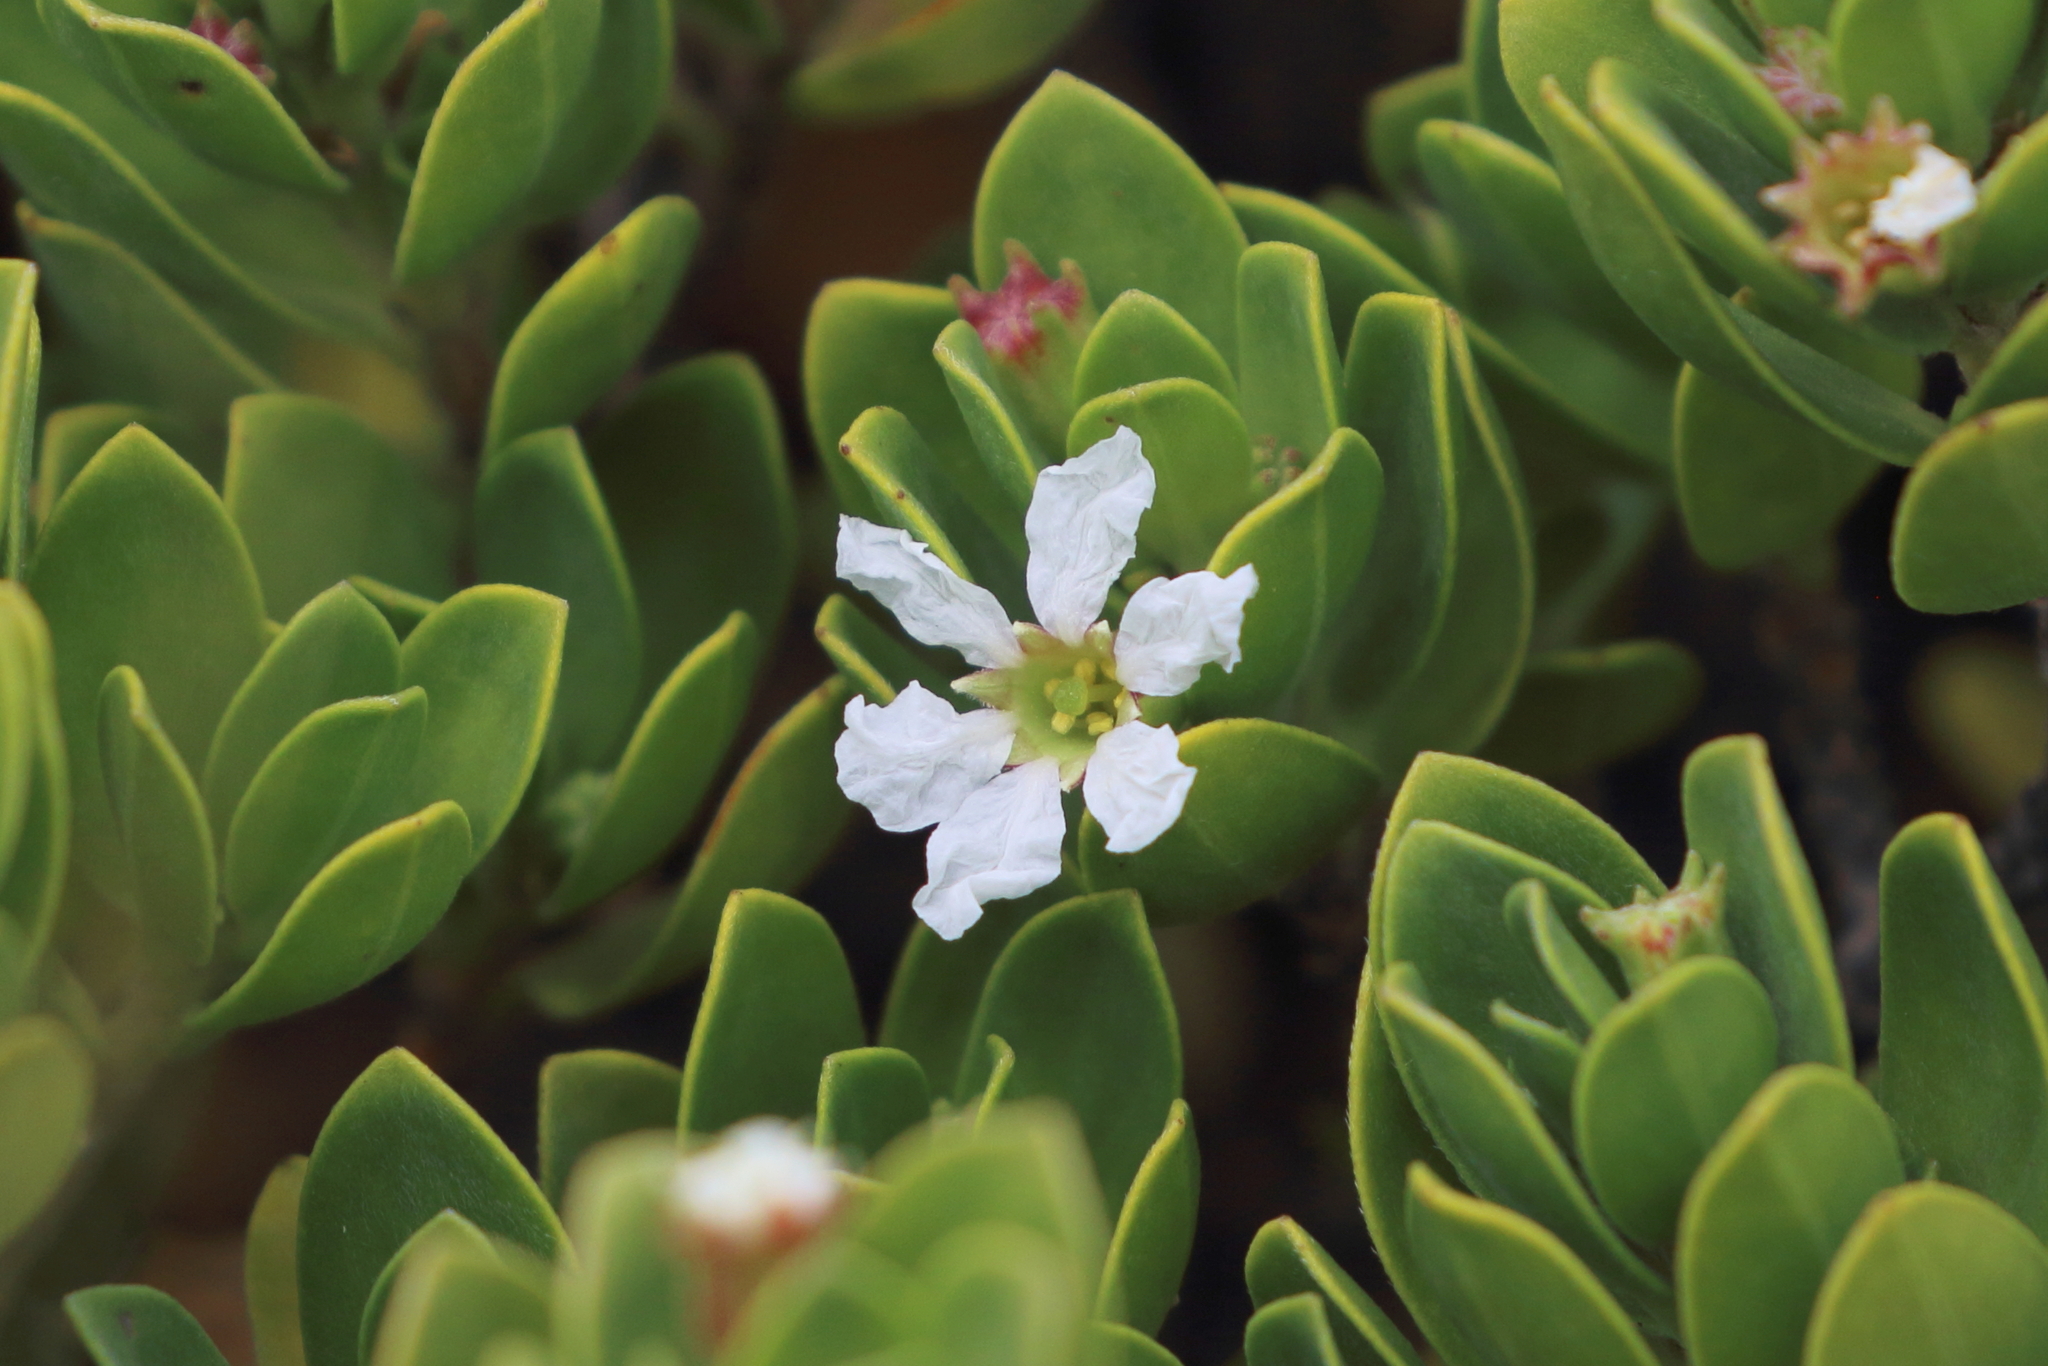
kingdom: Plantae
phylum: Tracheophyta
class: Magnoliopsida
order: Myrtales
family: Lythraceae
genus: Pemphis
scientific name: Pemphis acidula
